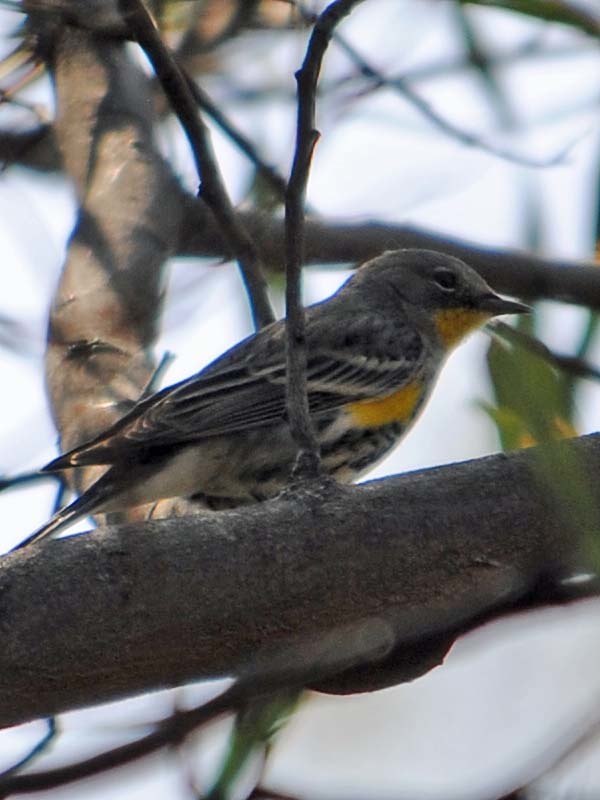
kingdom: Animalia
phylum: Chordata
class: Aves
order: Passeriformes
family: Parulidae
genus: Setophaga
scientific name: Setophaga auduboni
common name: Audubon's warbler
